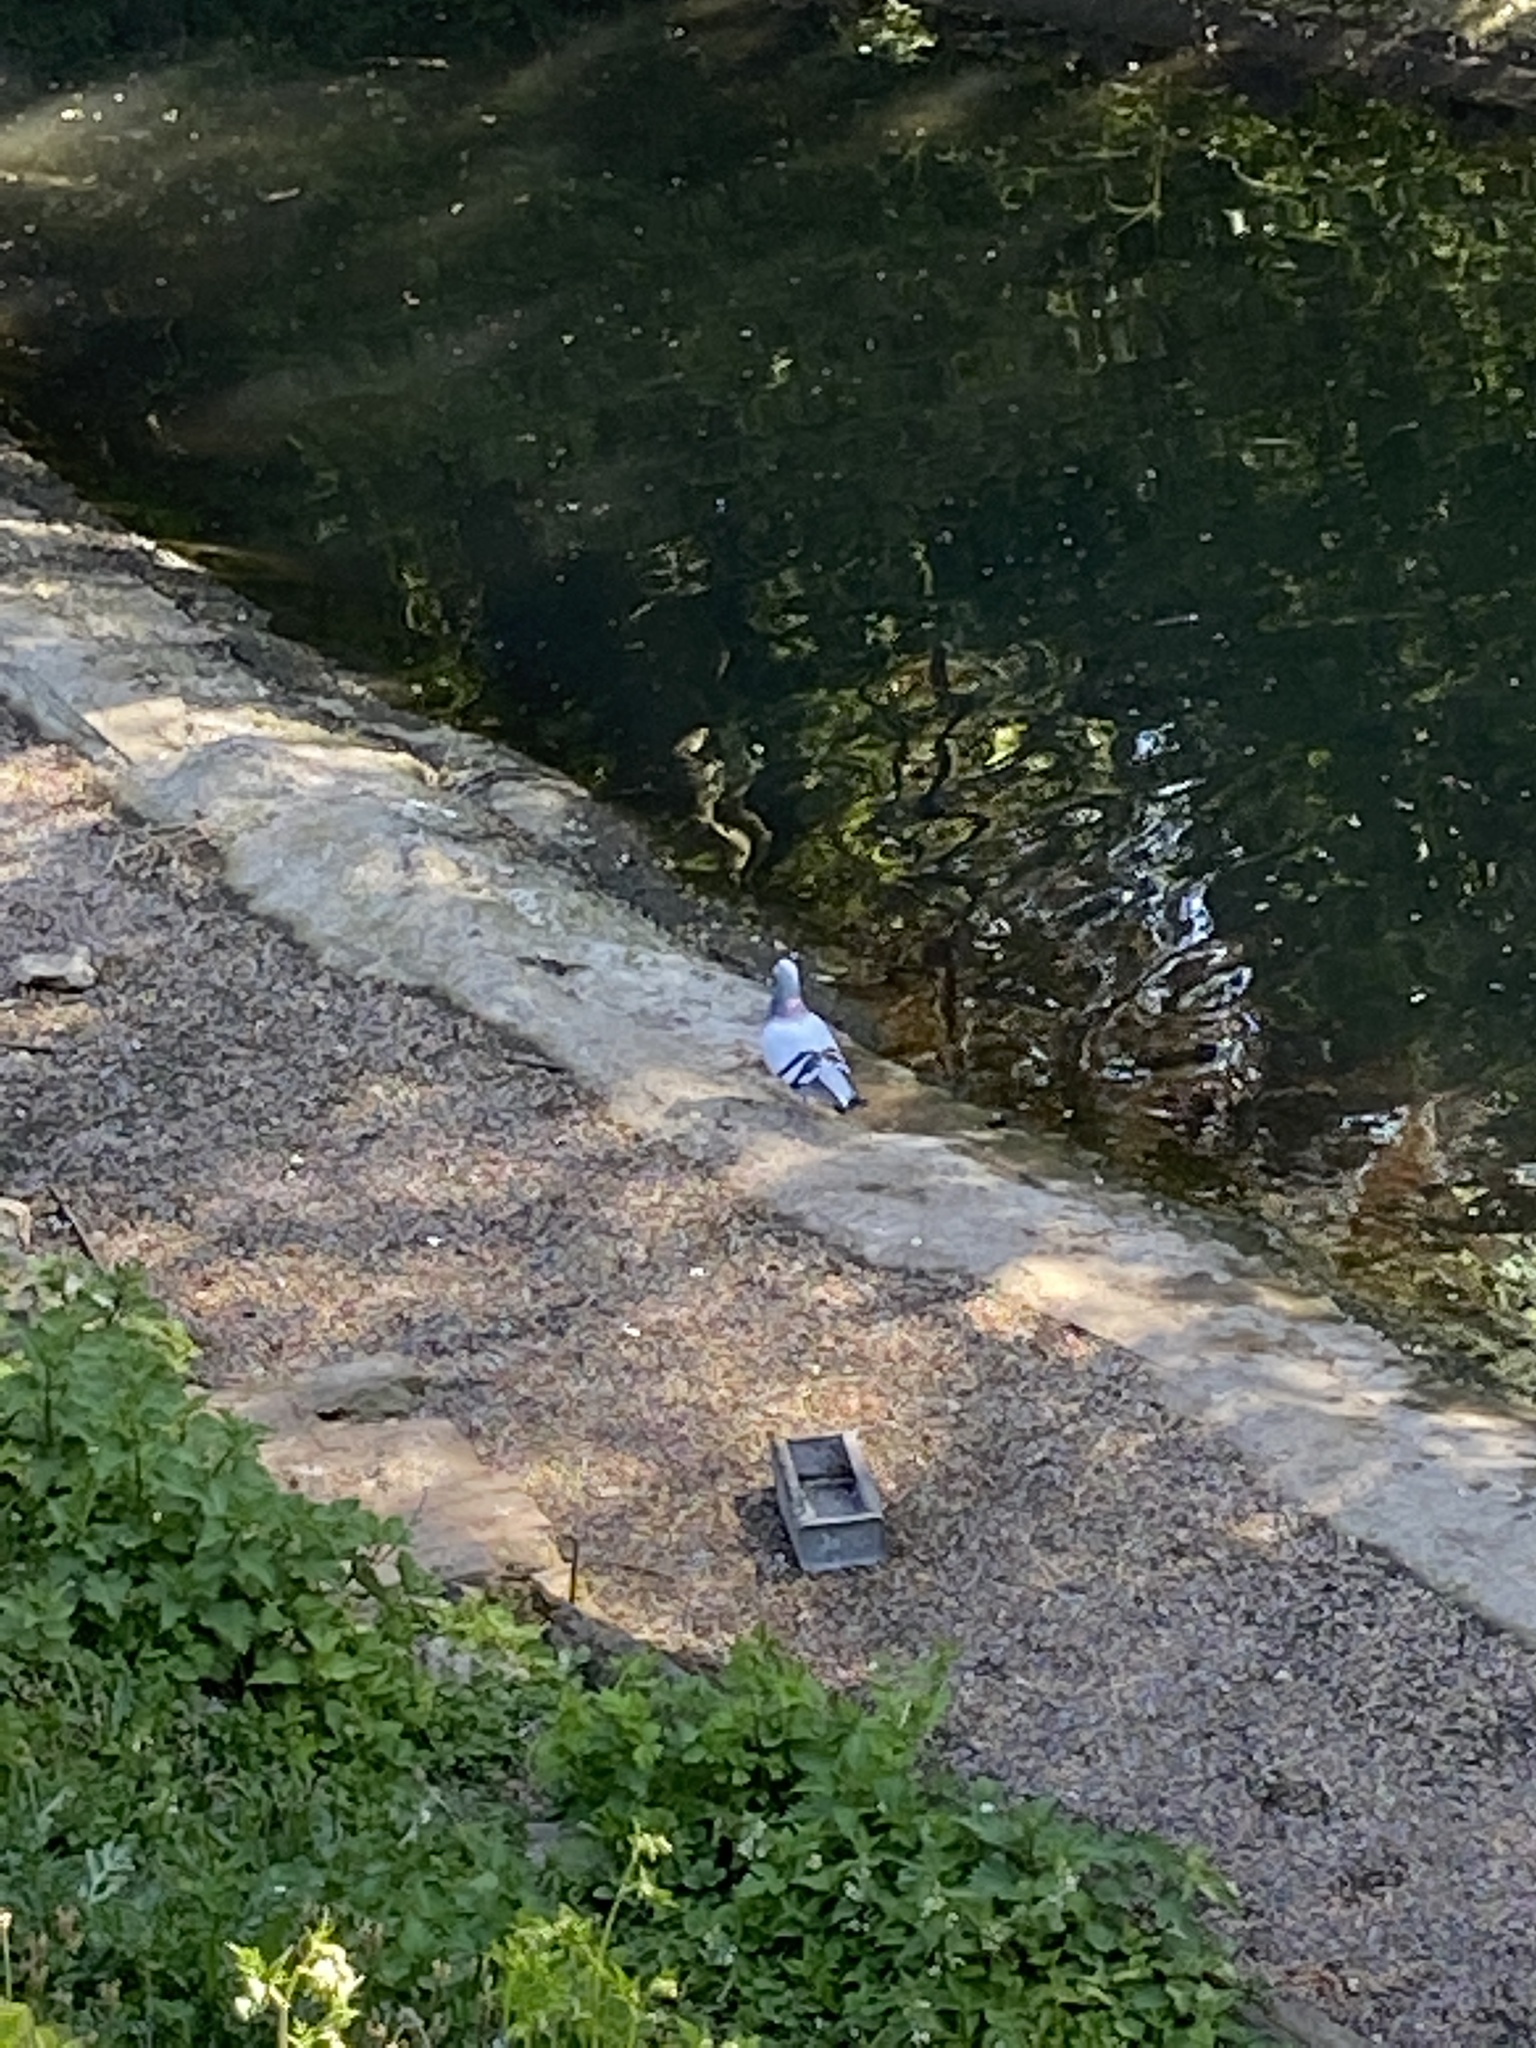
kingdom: Animalia
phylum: Chordata
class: Aves
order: Columbiformes
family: Columbidae
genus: Columba
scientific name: Columba livia
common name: Rock pigeon
